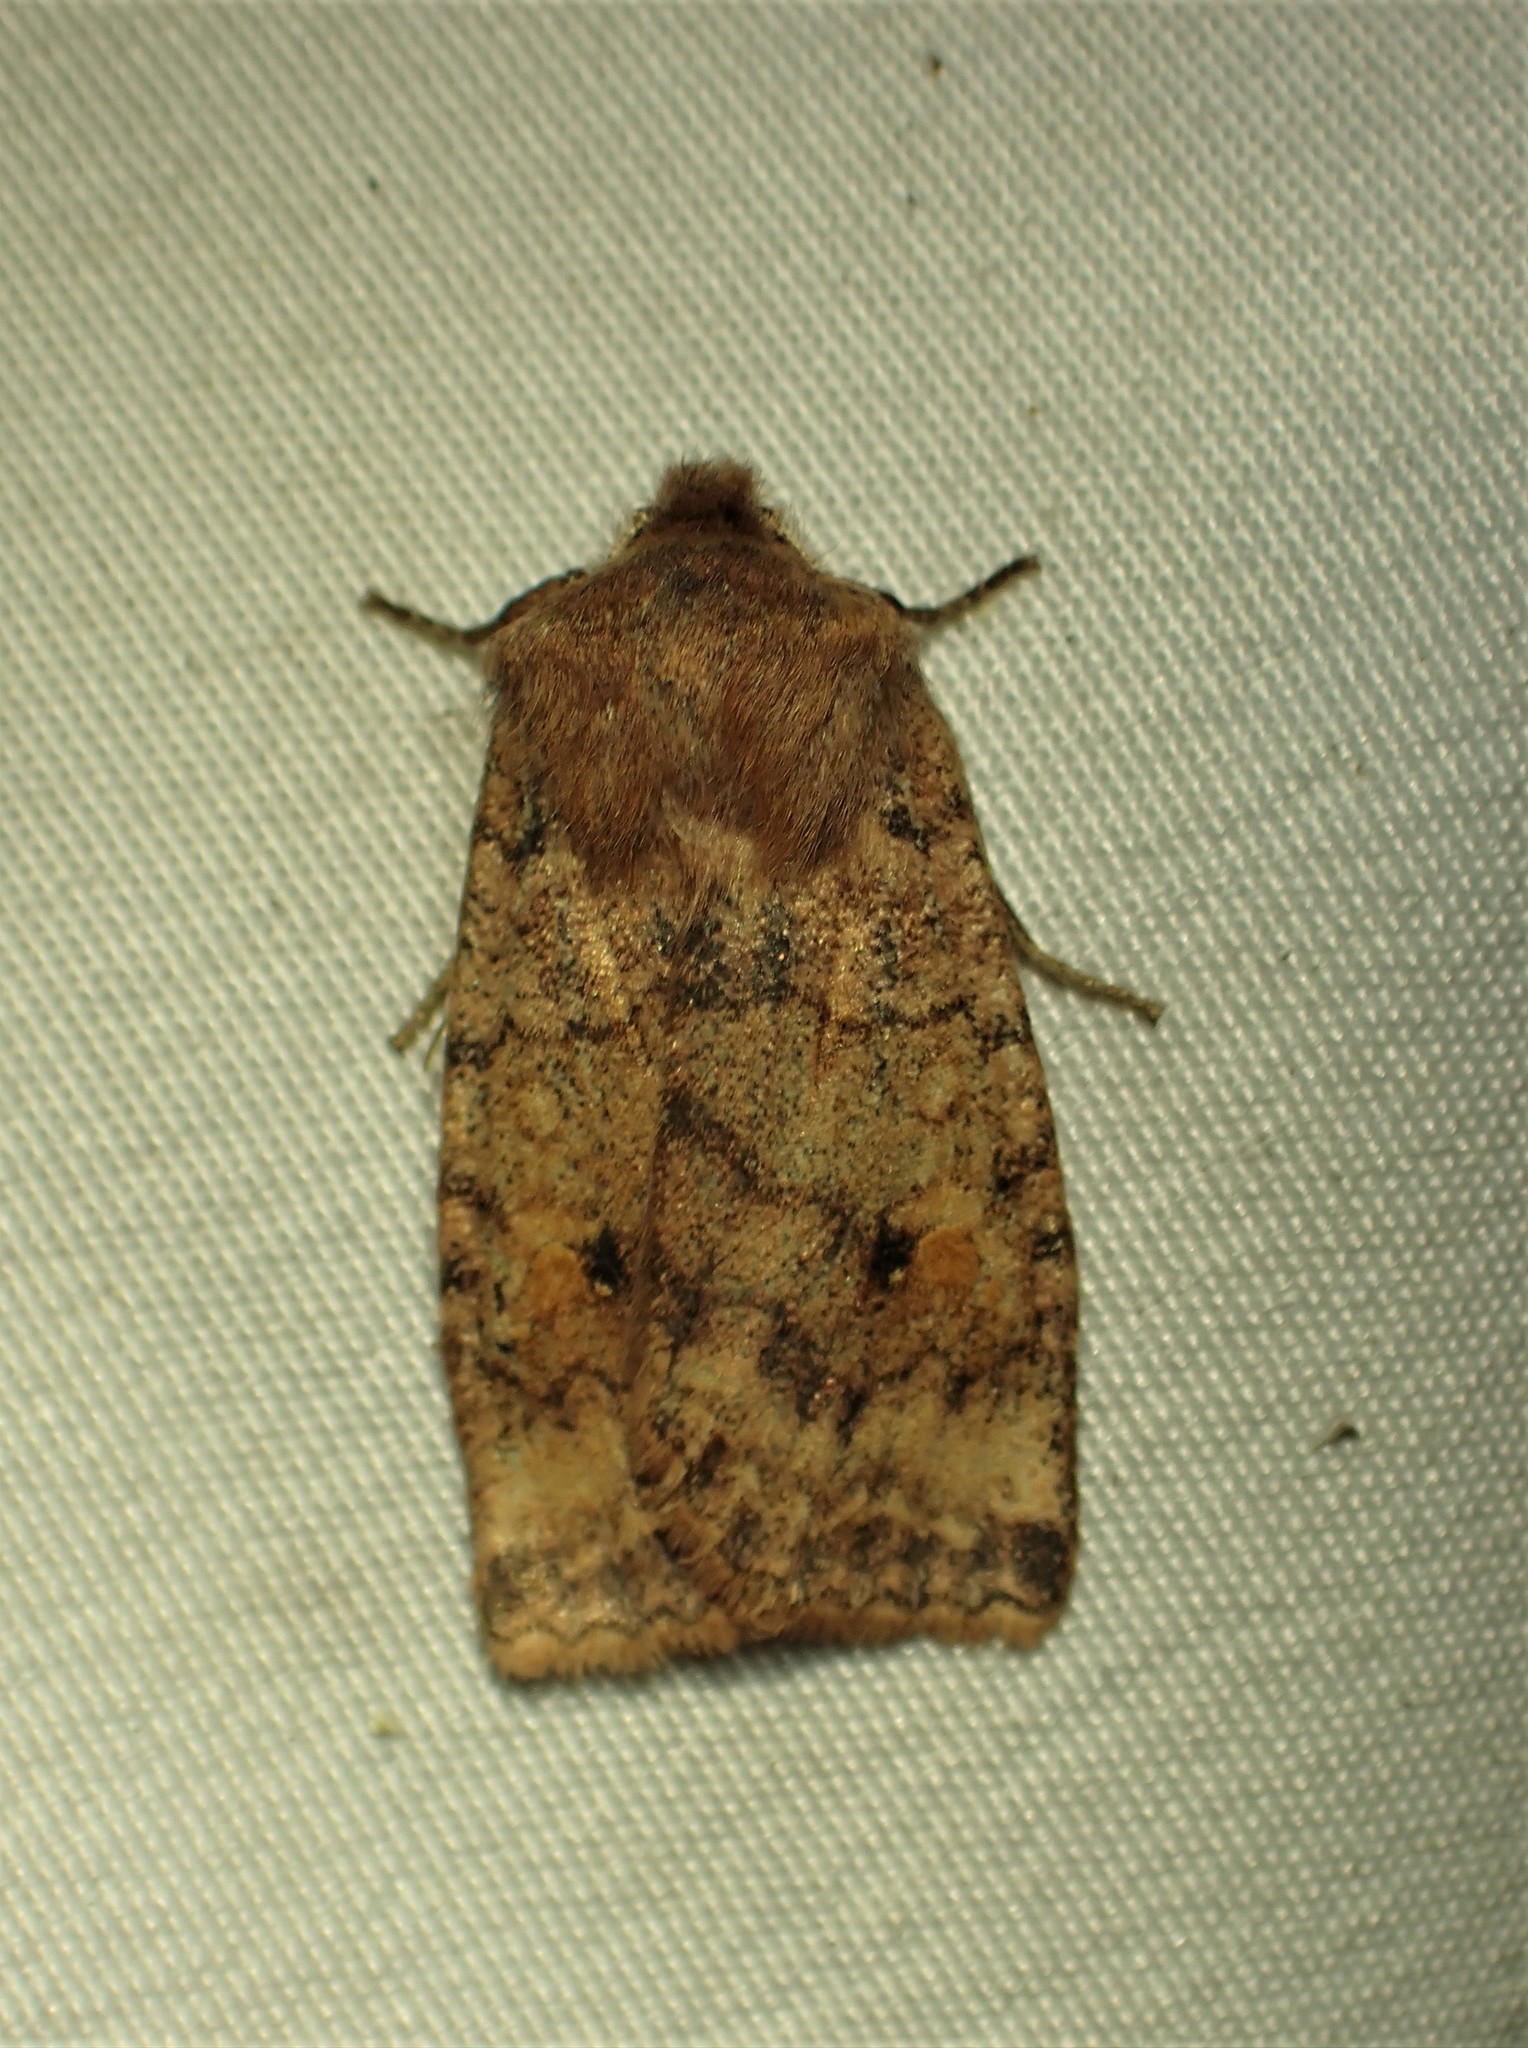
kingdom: Animalia
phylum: Arthropoda
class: Insecta
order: Lepidoptera
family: Noctuidae
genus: Eupsilia
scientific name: Eupsilia tristigmata
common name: Three-spotted sallow
